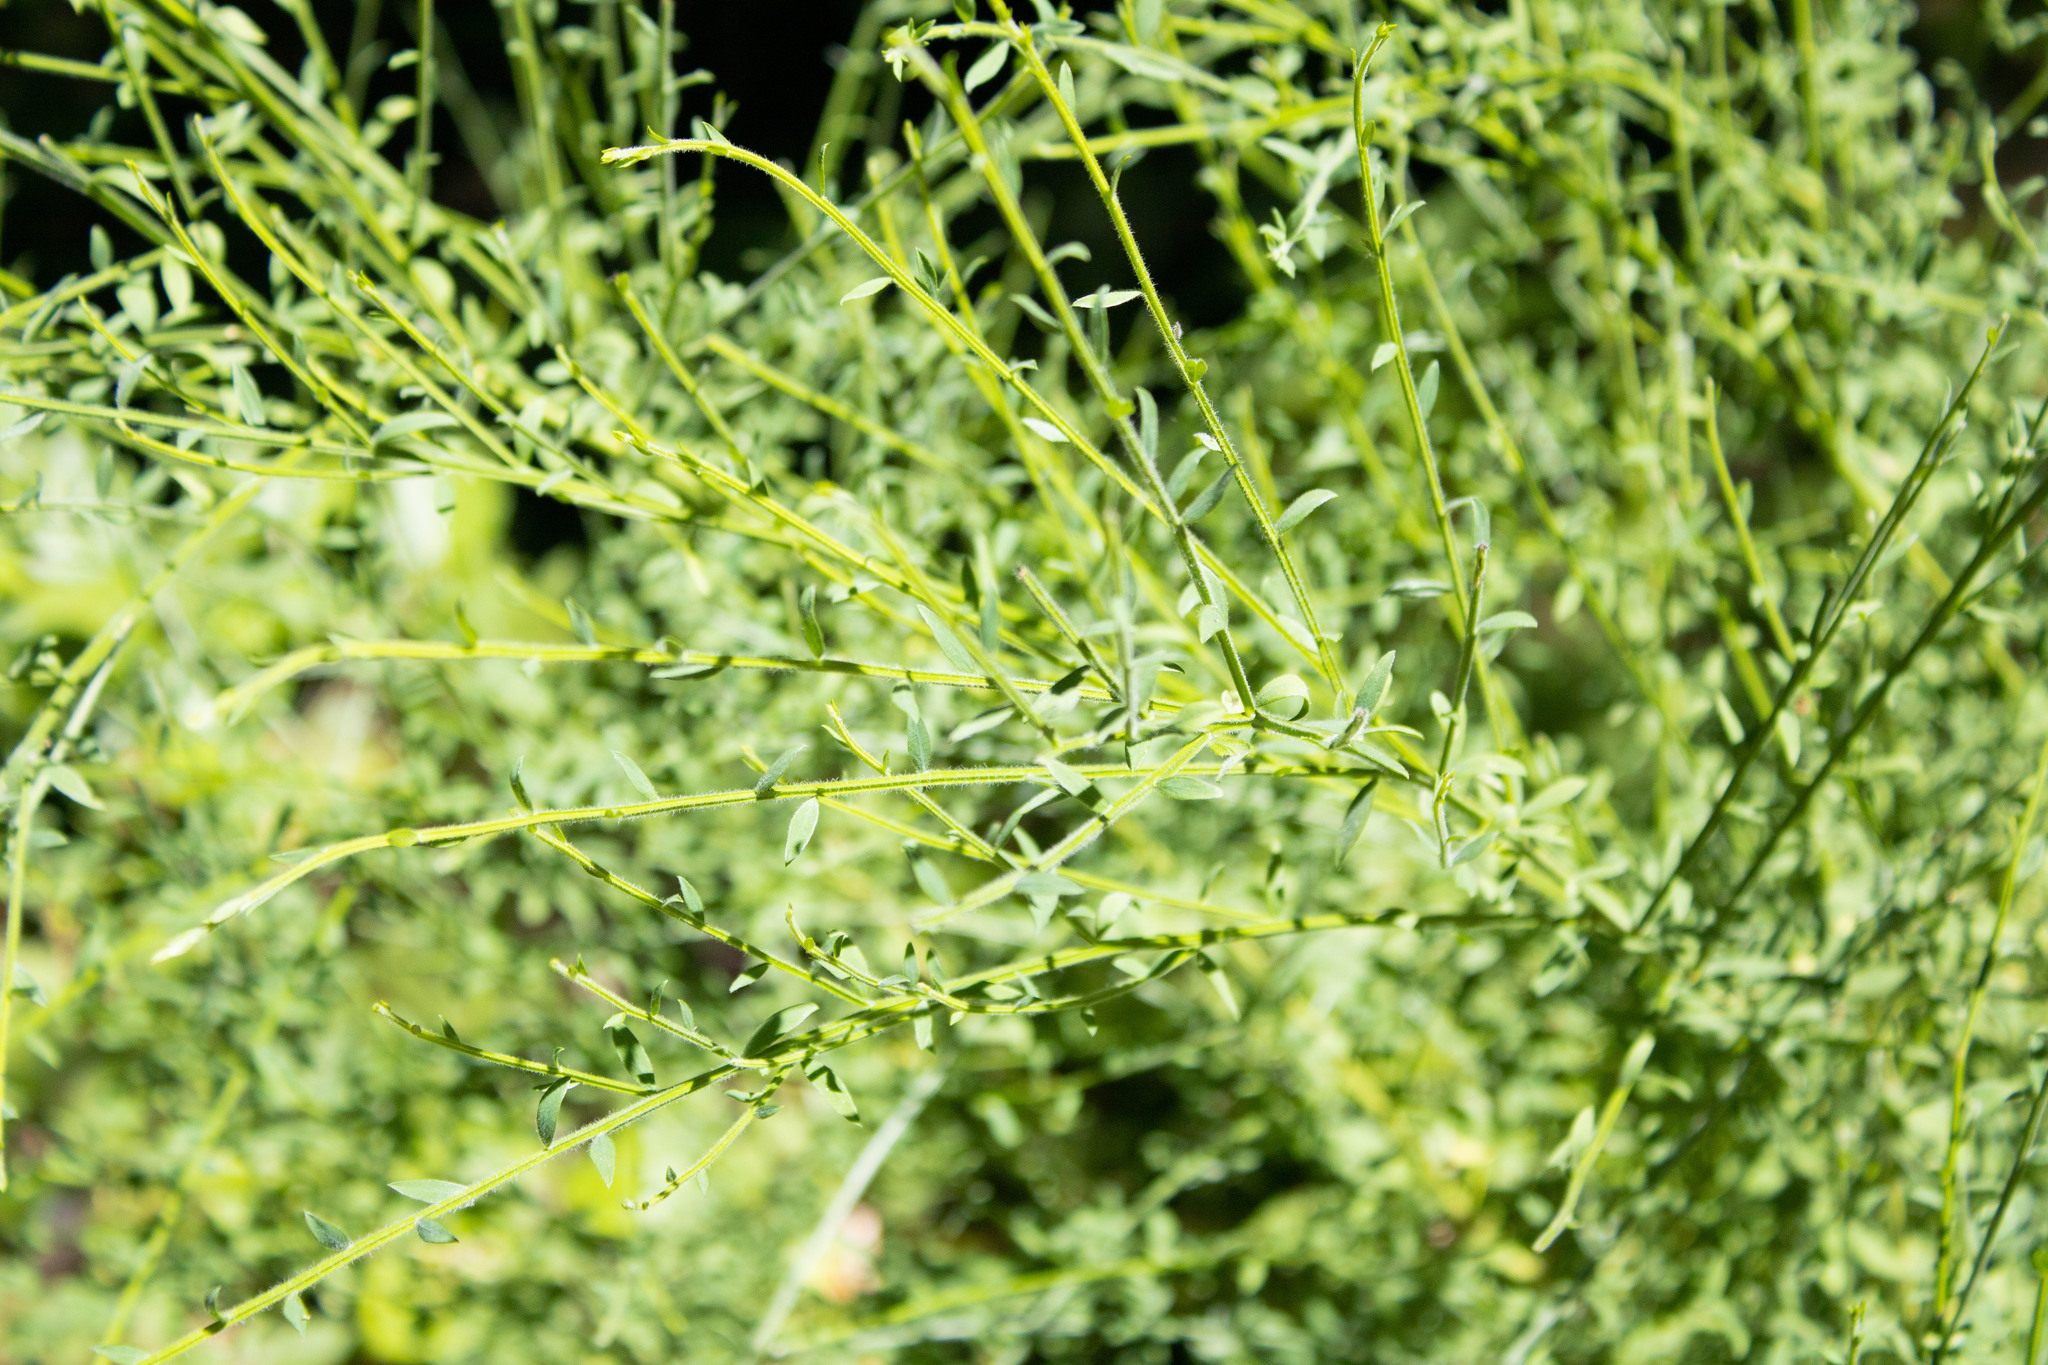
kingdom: Plantae
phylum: Tracheophyta
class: Magnoliopsida
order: Fabales
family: Fabaceae
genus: Cytisus
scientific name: Cytisus scoparius
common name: Scotch broom
